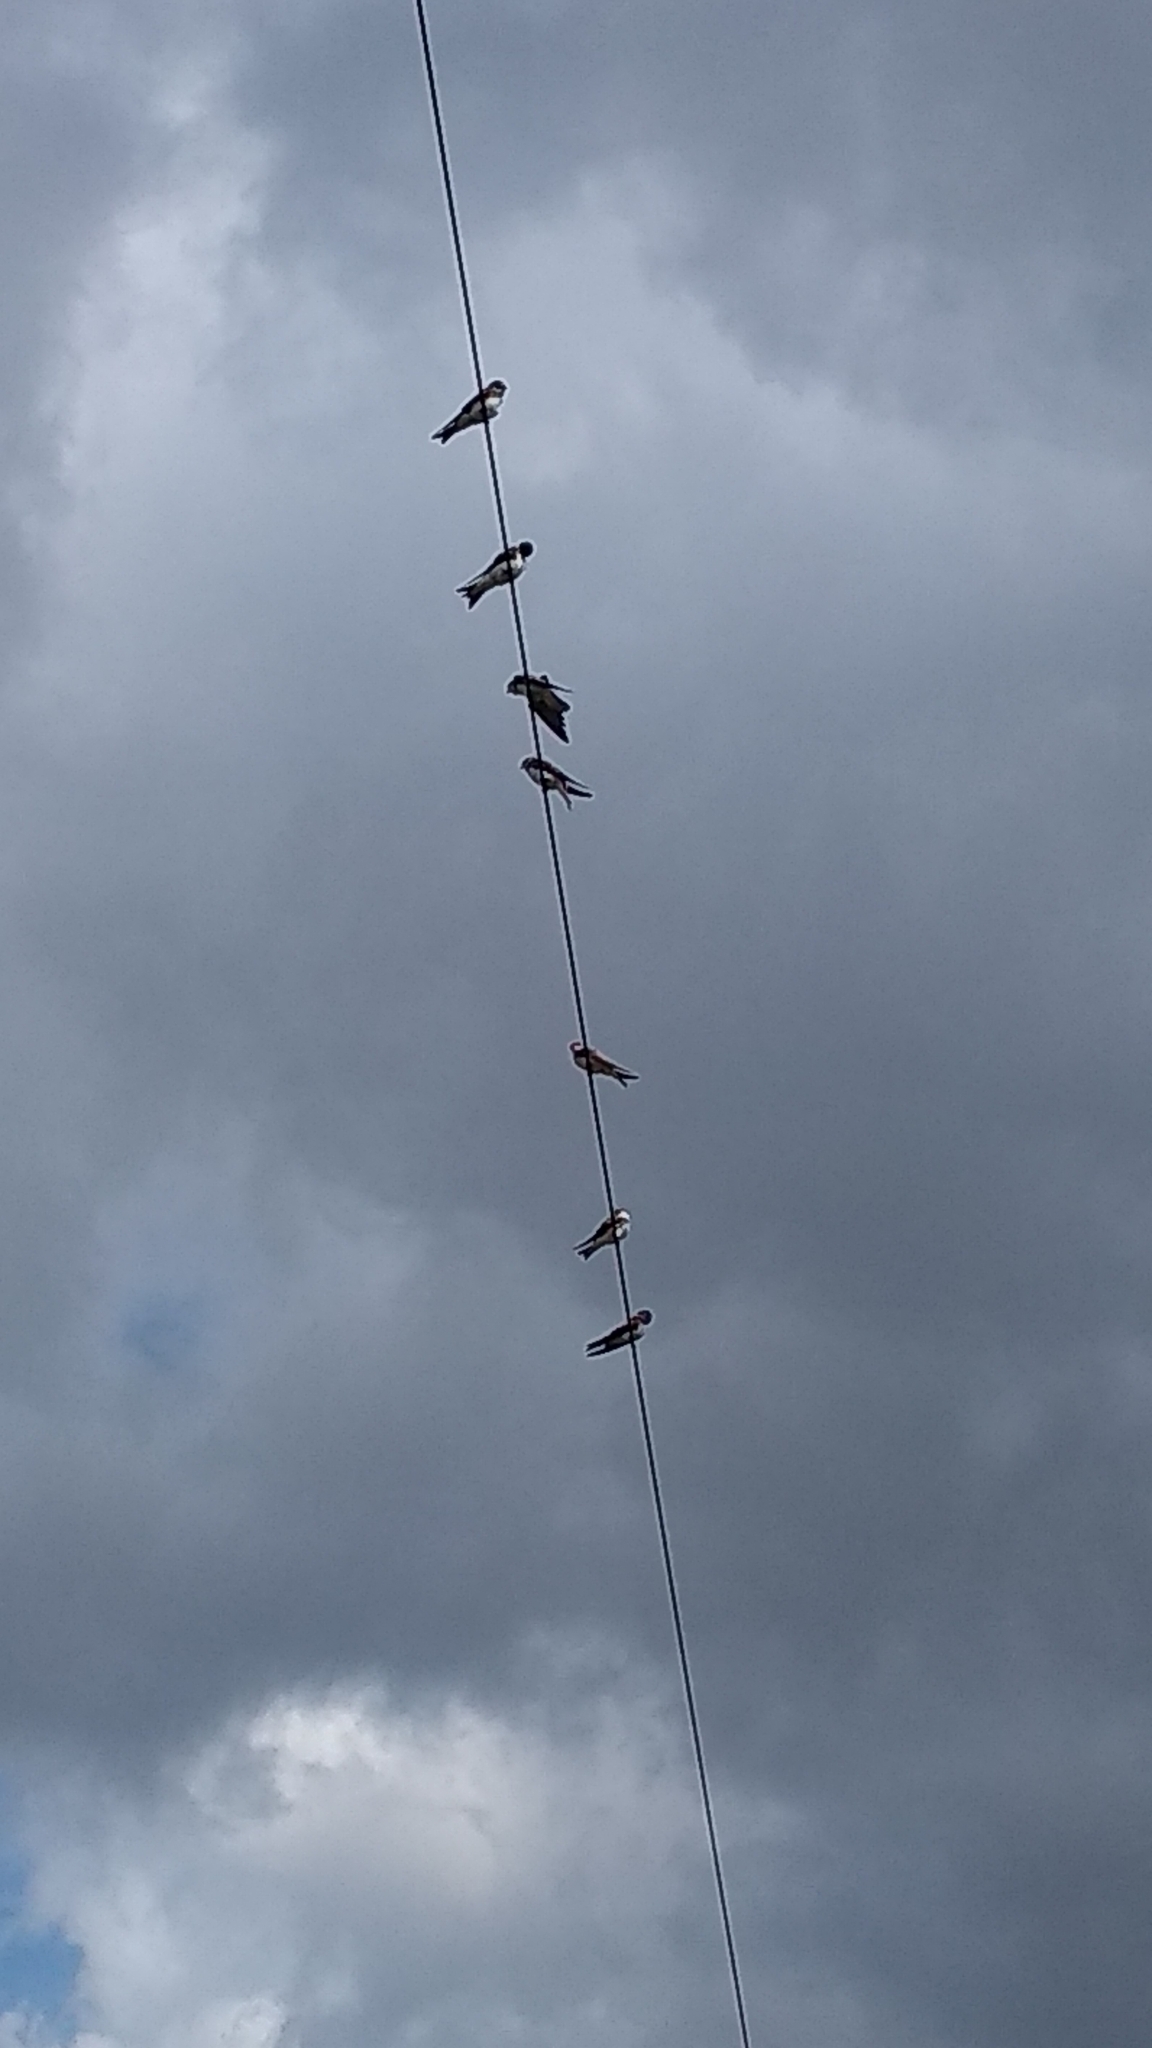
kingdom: Animalia
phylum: Chordata
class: Aves
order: Passeriformes
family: Hirundinidae
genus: Riparia
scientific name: Riparia riparia
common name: Sand martin
